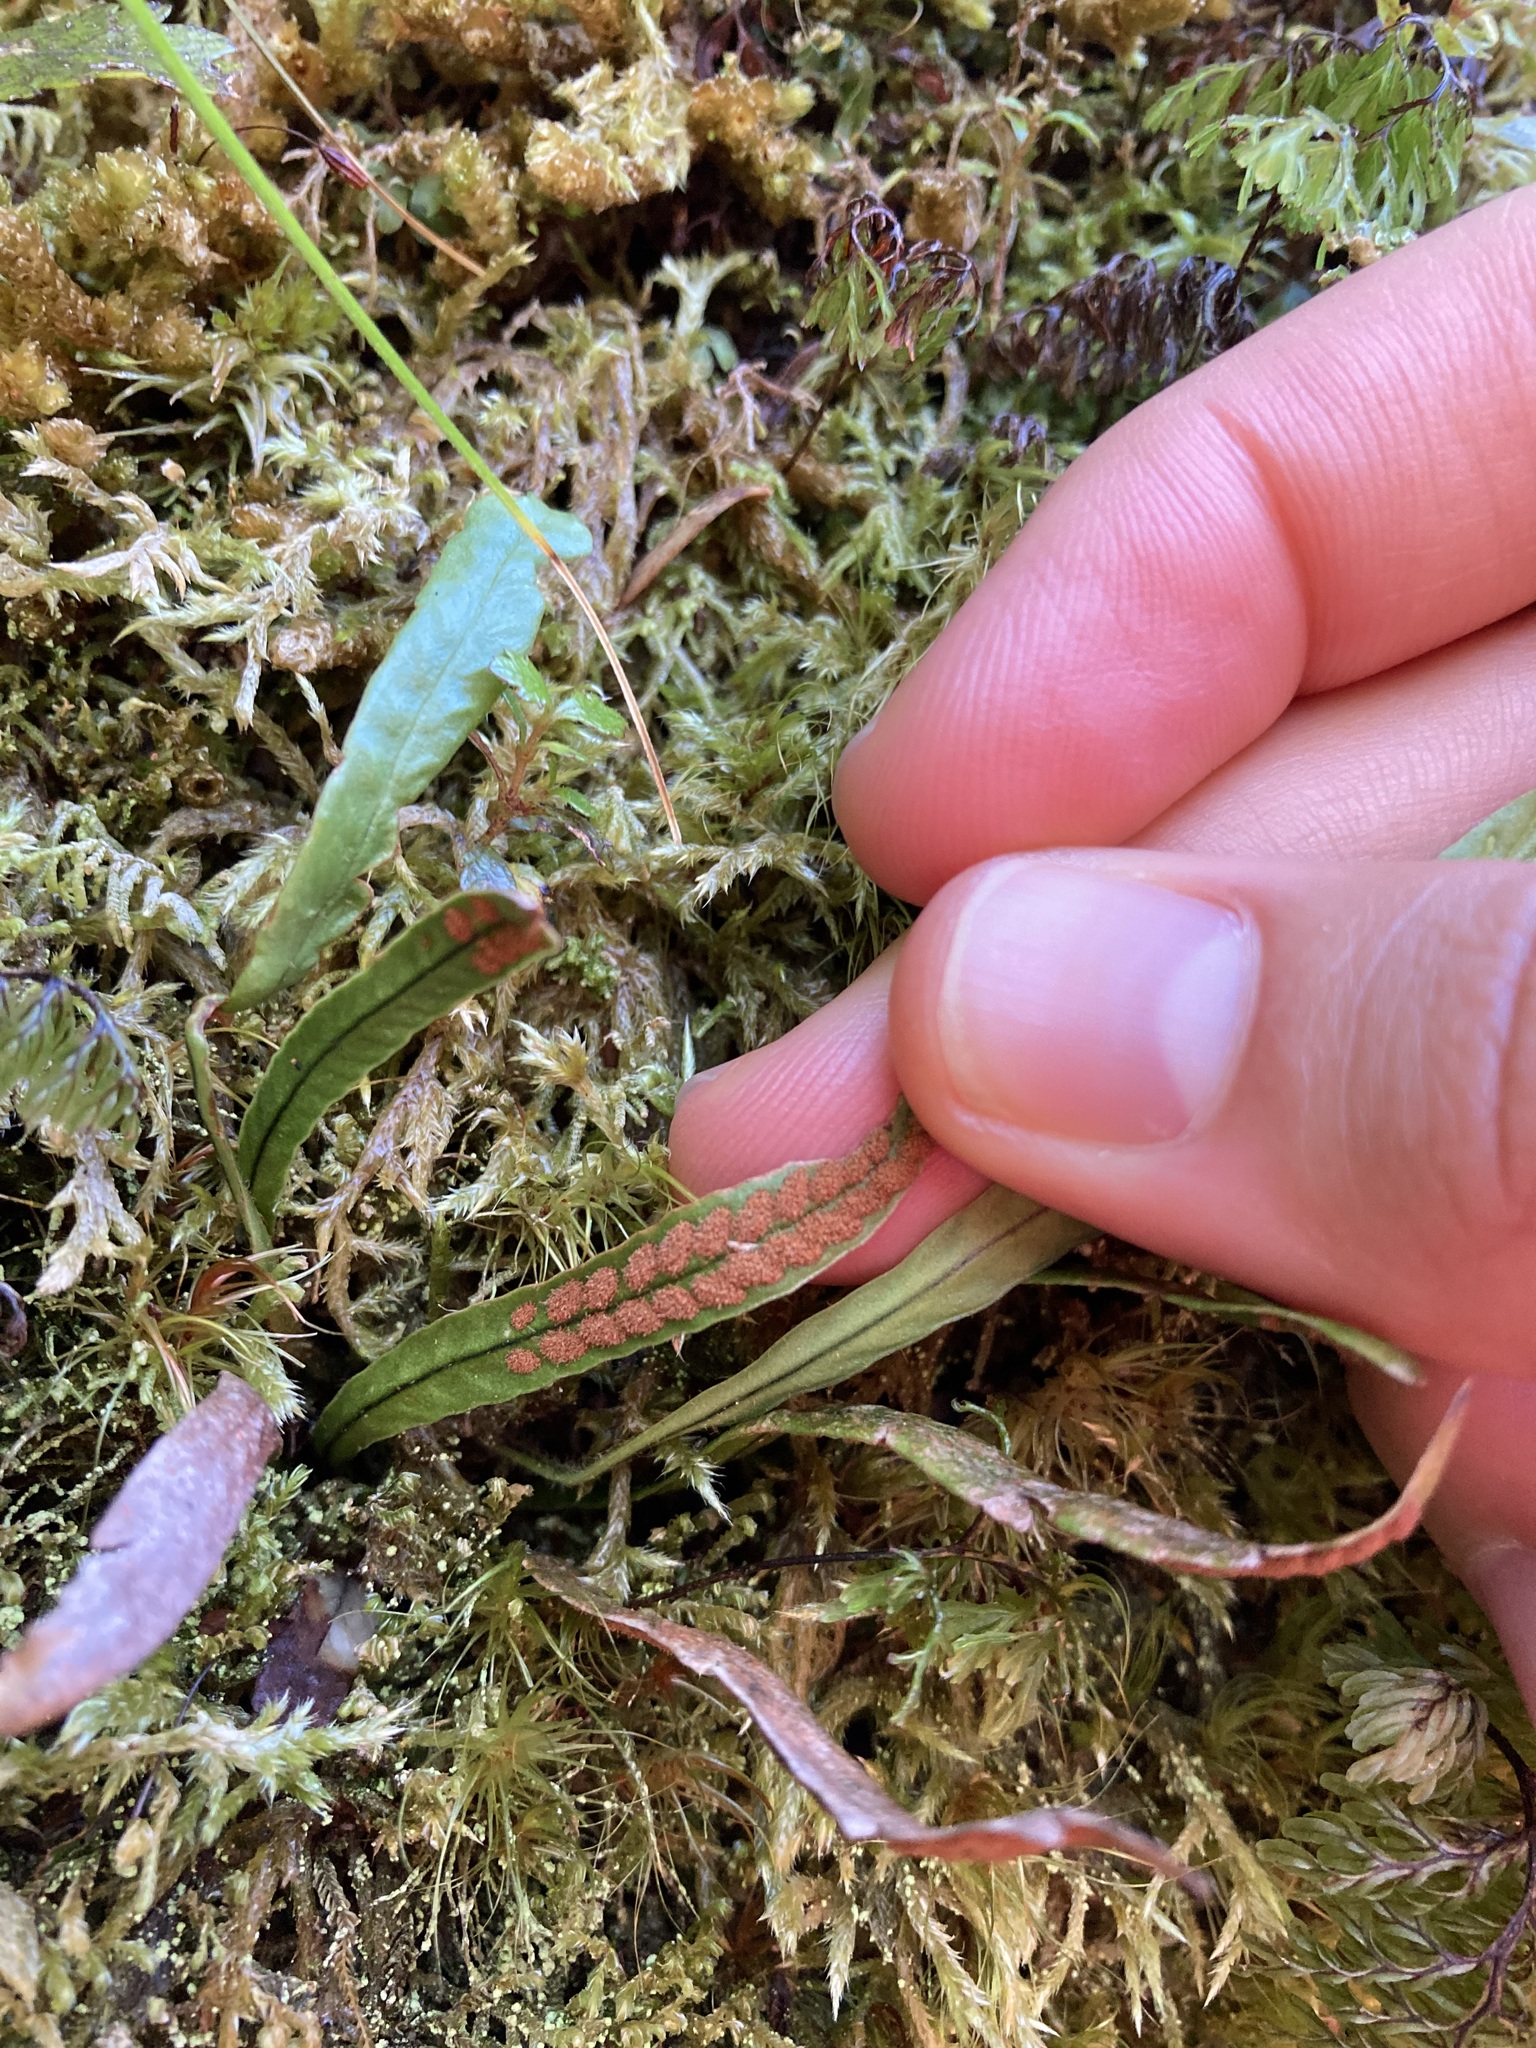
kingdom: Plantae
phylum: Tracheophyta
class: Polypodiopsida
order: Polypodiales
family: Polypodiaceae
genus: Notogrammitis
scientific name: Notogrammitis billardierei
